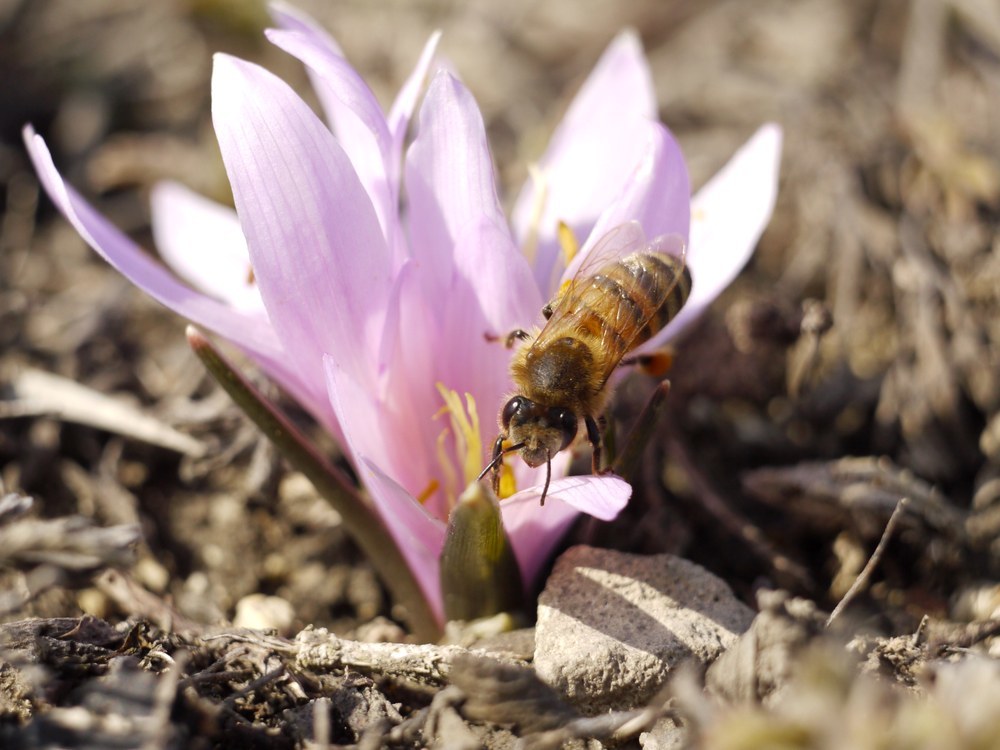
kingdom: Plantae
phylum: Tracheophyta
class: Liliopsida
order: Liliales
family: Colchicaceae
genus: Colchicum
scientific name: Colchicum bulbocodium
